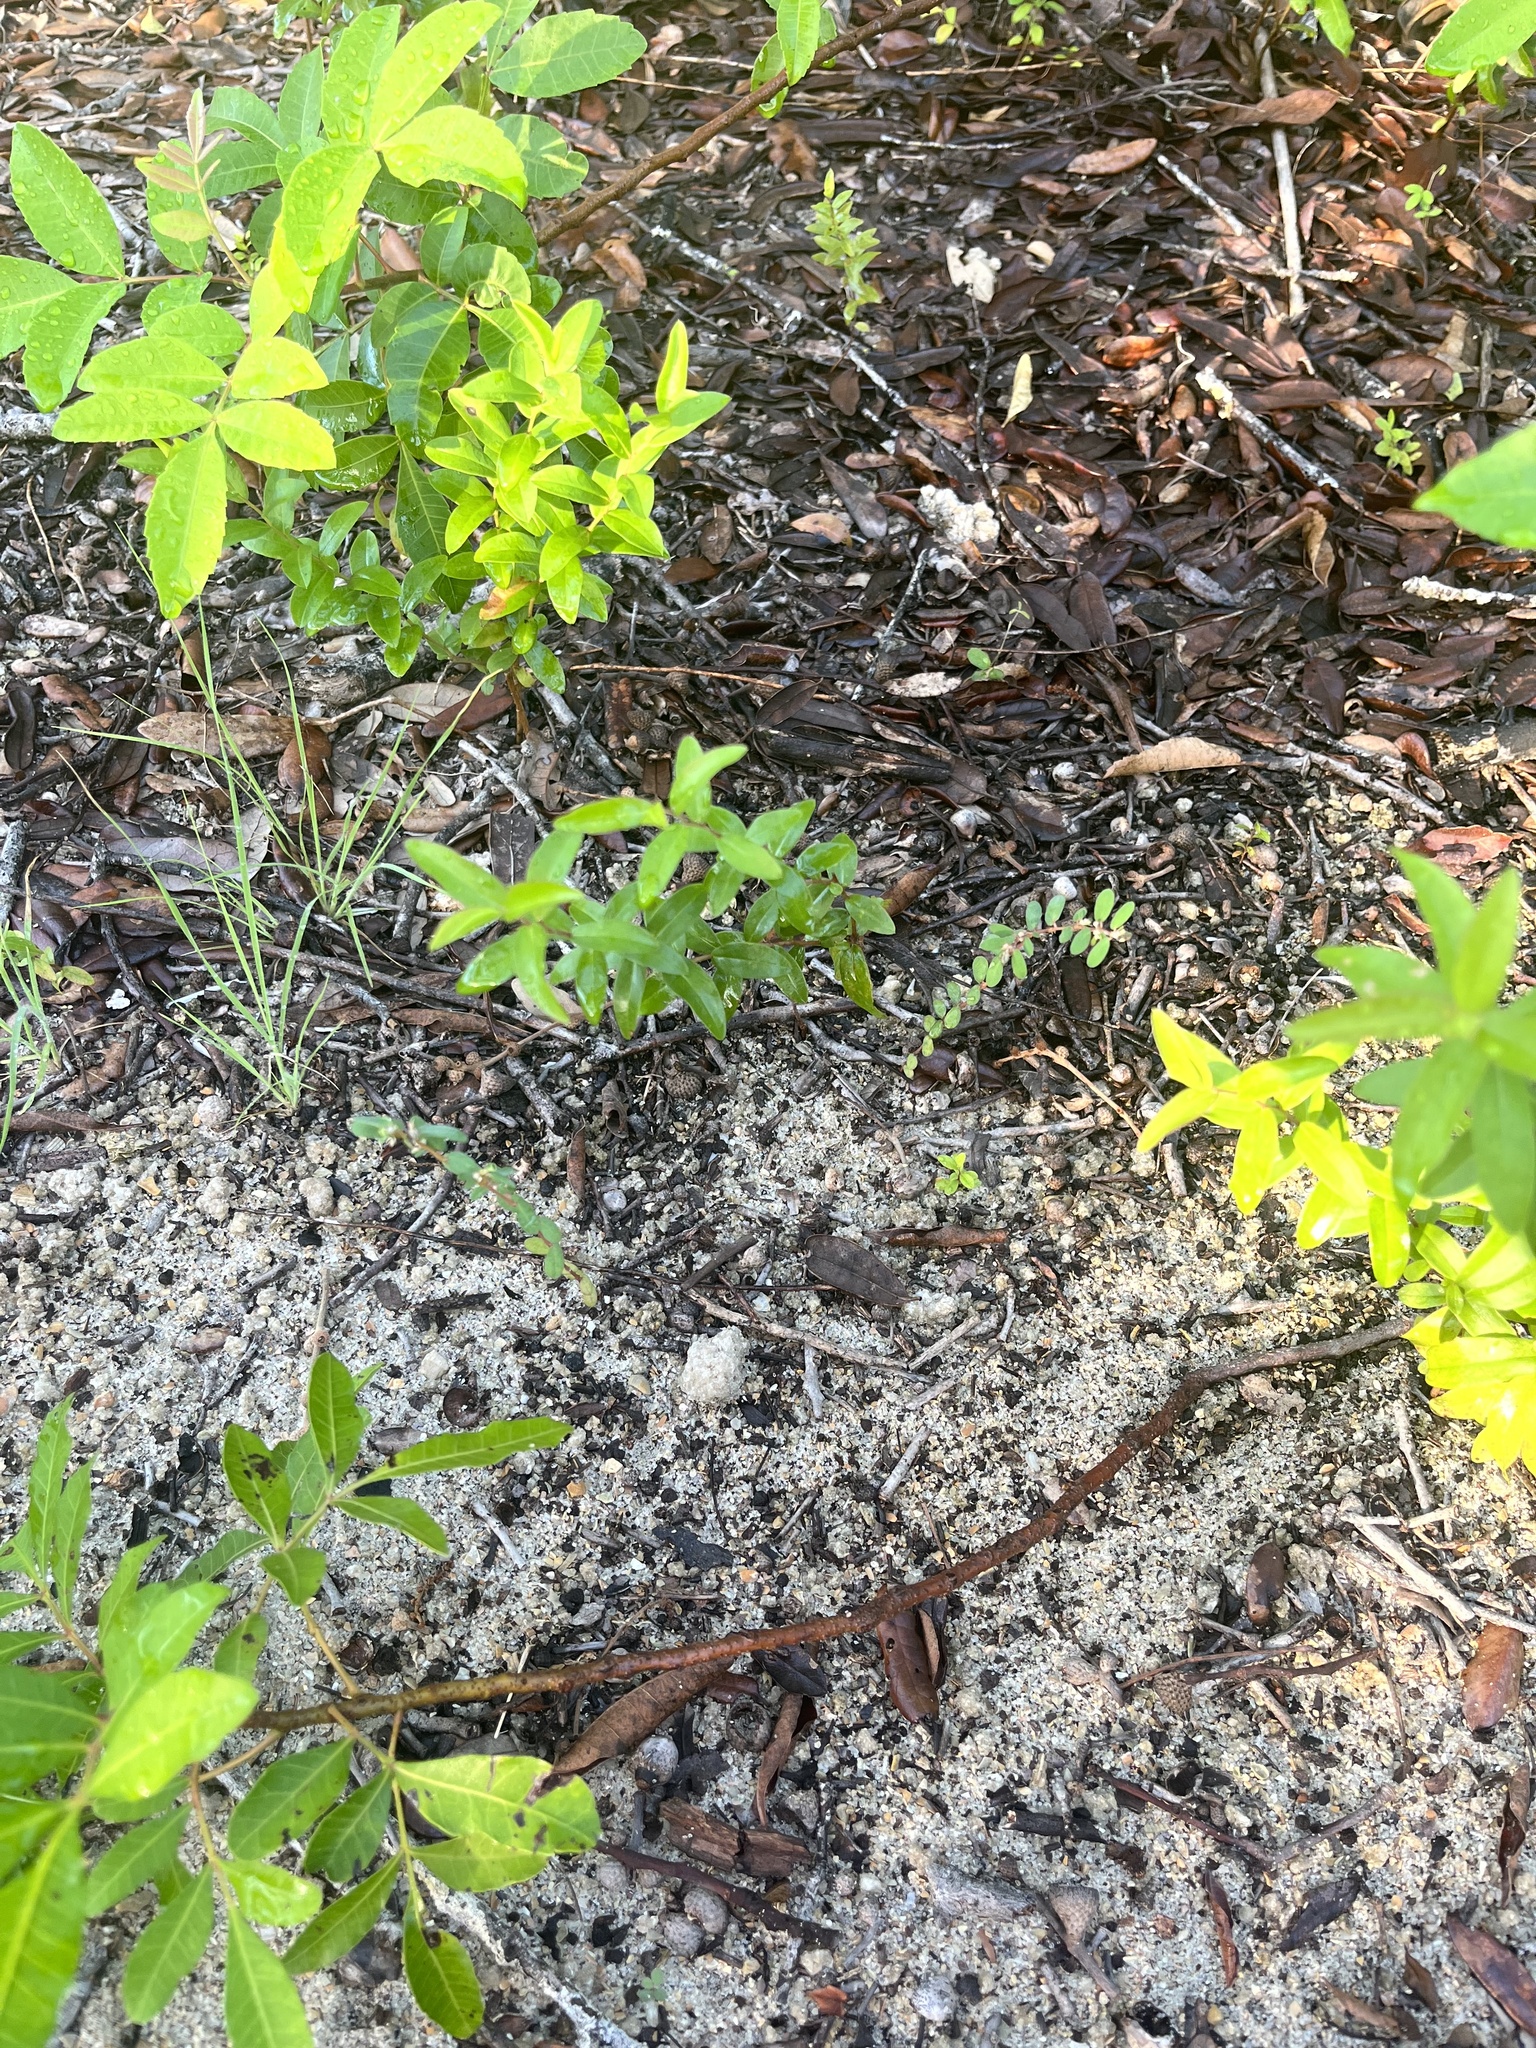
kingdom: Plantae
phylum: Tracheophyta
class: Magnoliopsida
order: Malpighiales
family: Euphorbiaceae
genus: Euphorbia
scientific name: Euphorbia maculata
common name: Spotted spurge
